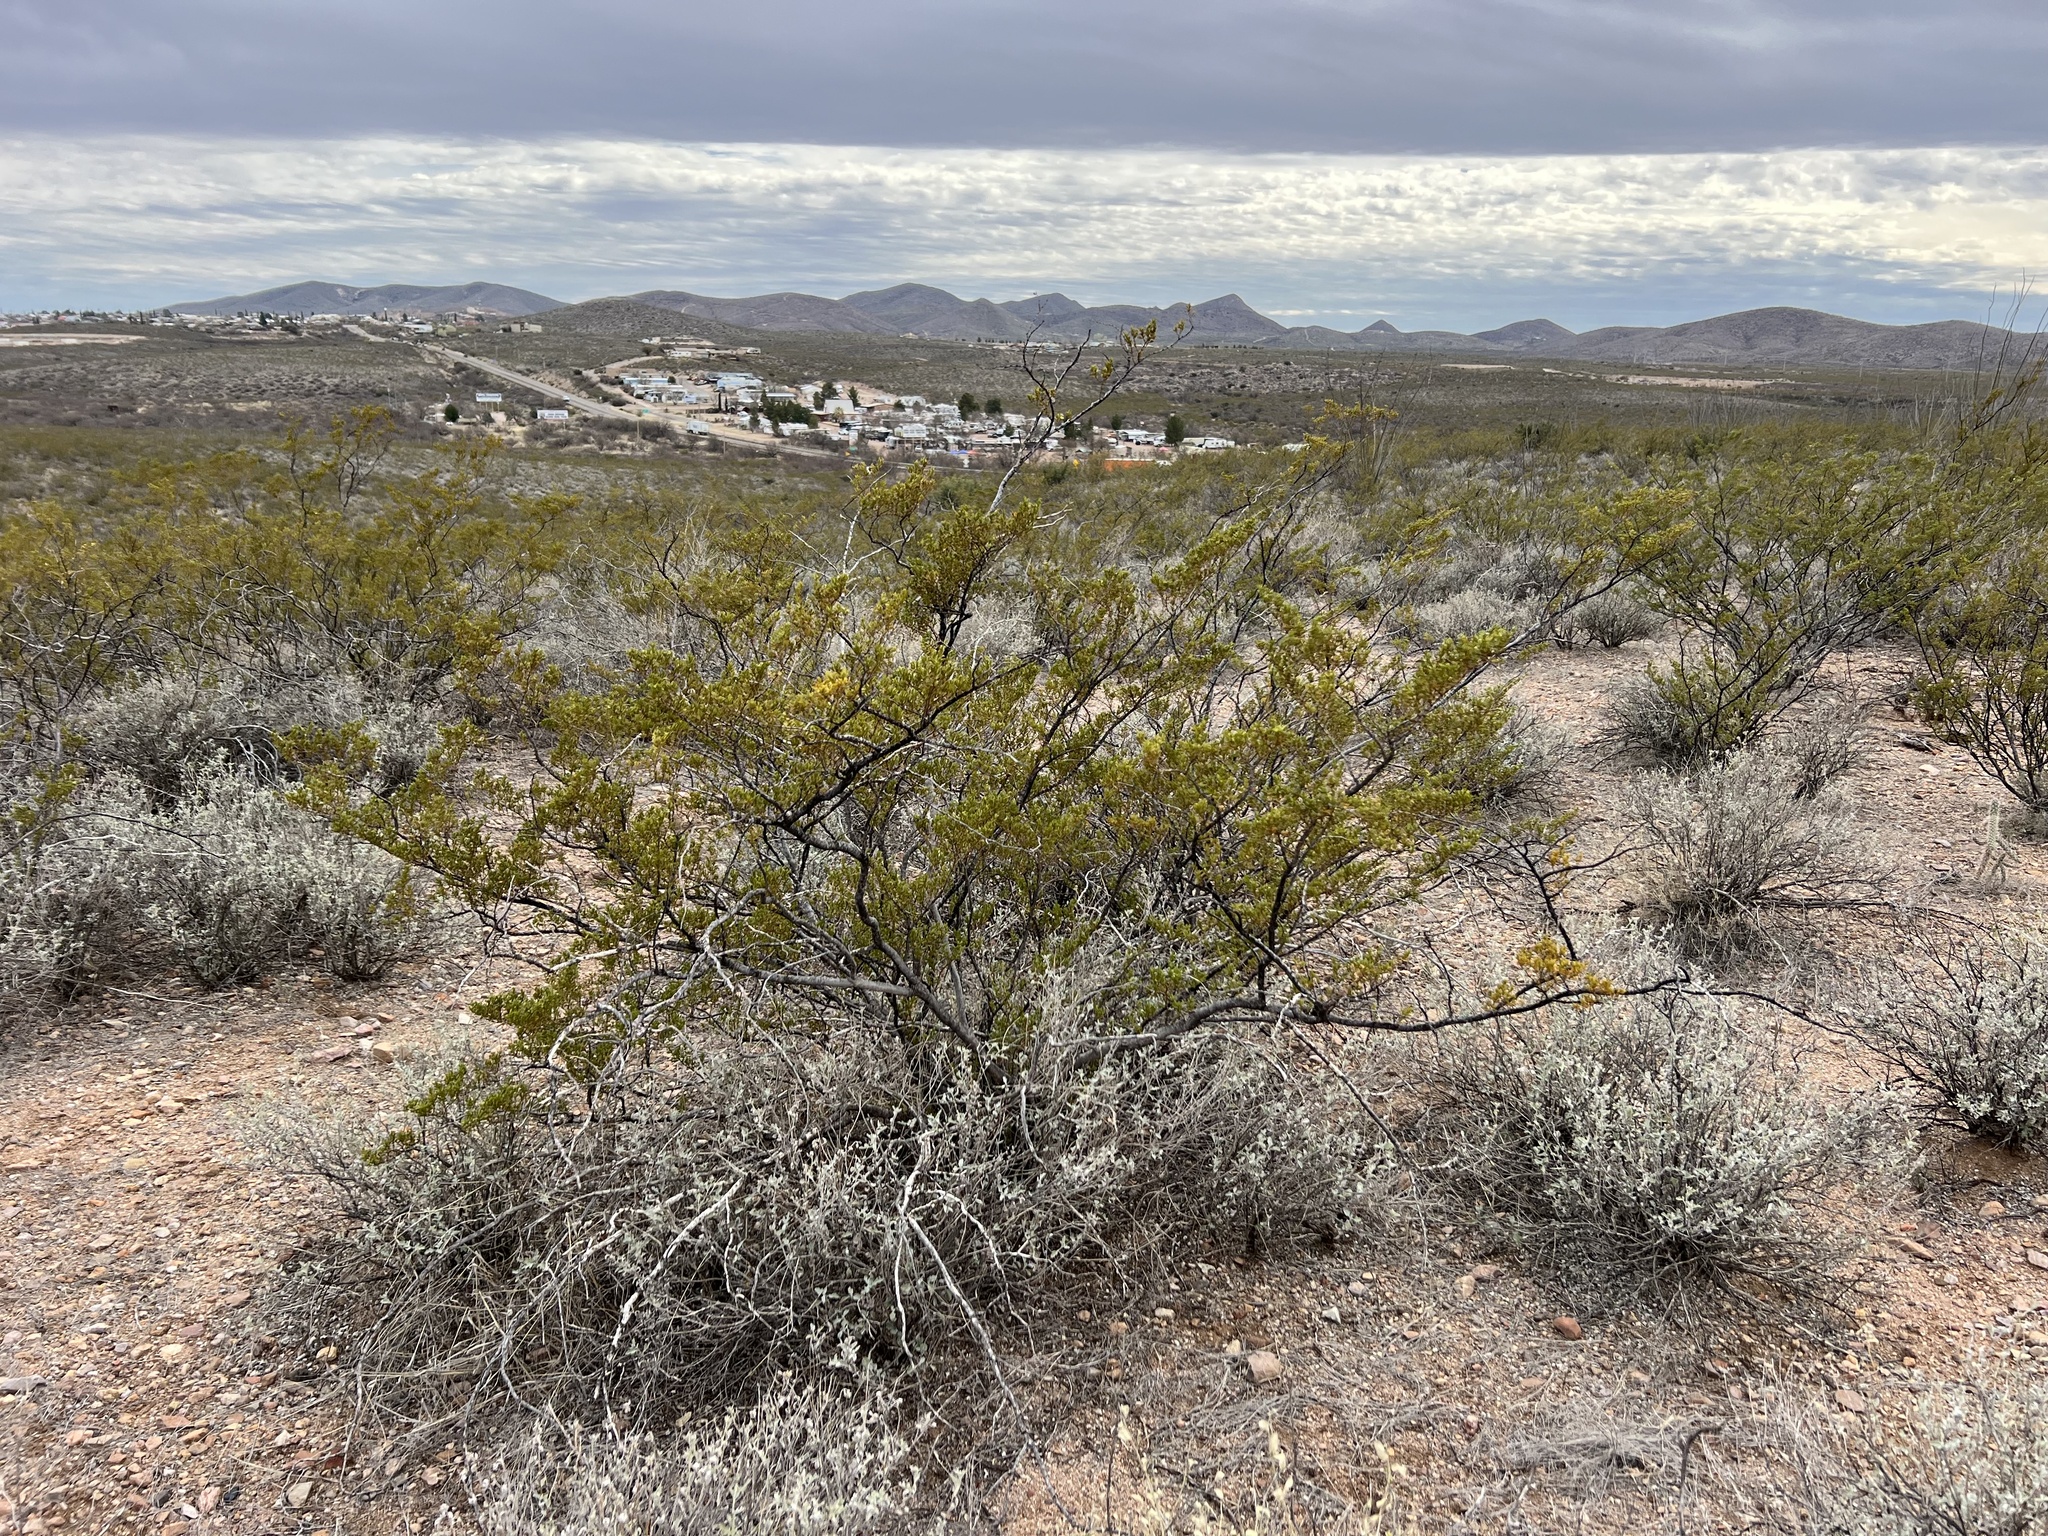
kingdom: Plantae
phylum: Tracheophyta
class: Magnoliopsida
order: Zygophyllales
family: Zygophyllaceae
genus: Larrea
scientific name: Larrea tridentata
